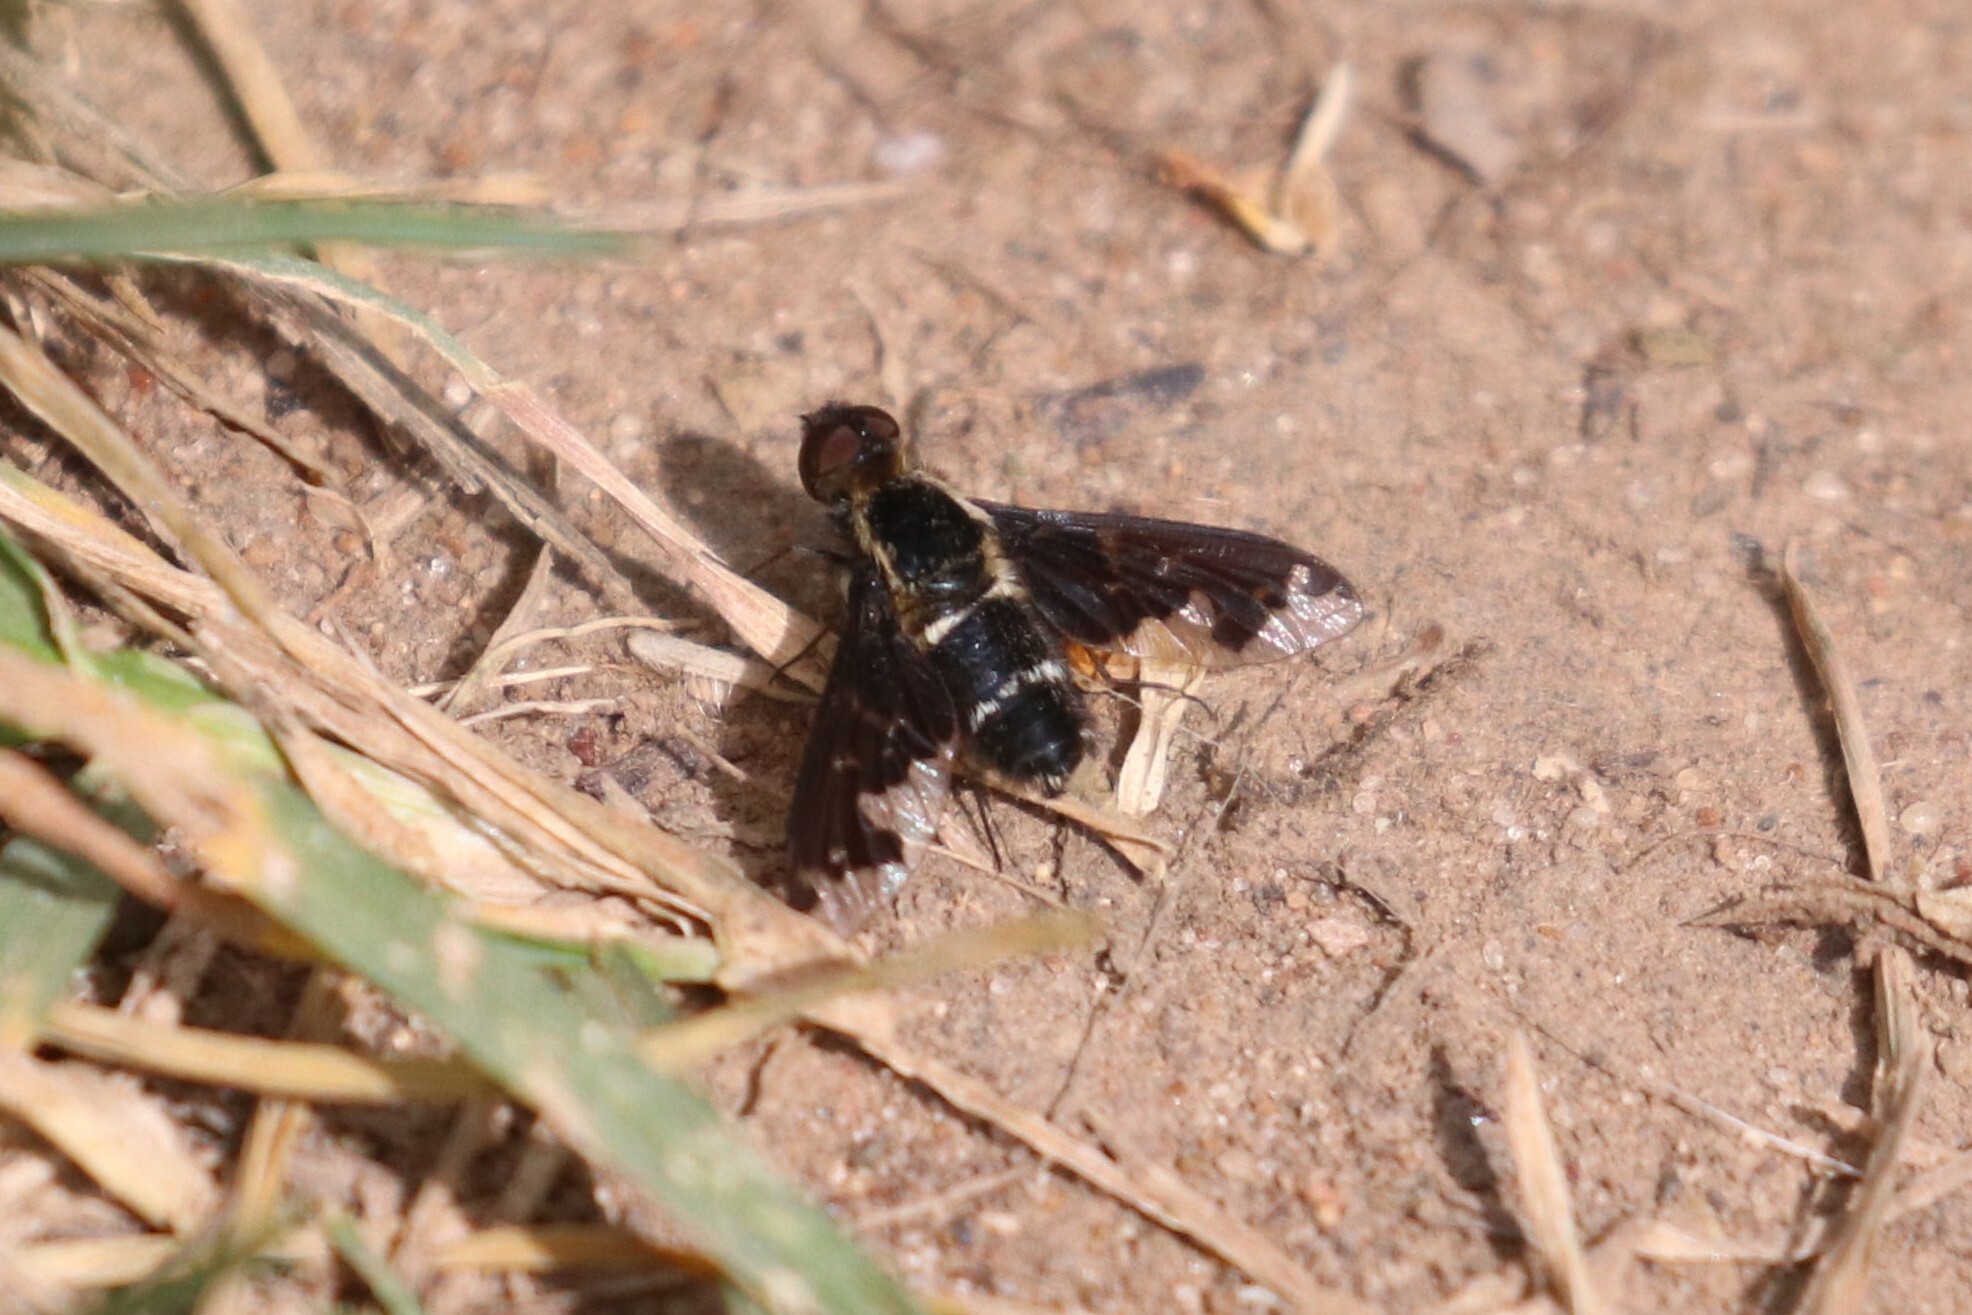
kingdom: Animalia
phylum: Arthropoda
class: Insecta
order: Diptera
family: Bombyliidae
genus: Hemipenthes
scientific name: Hemipenthes maura
